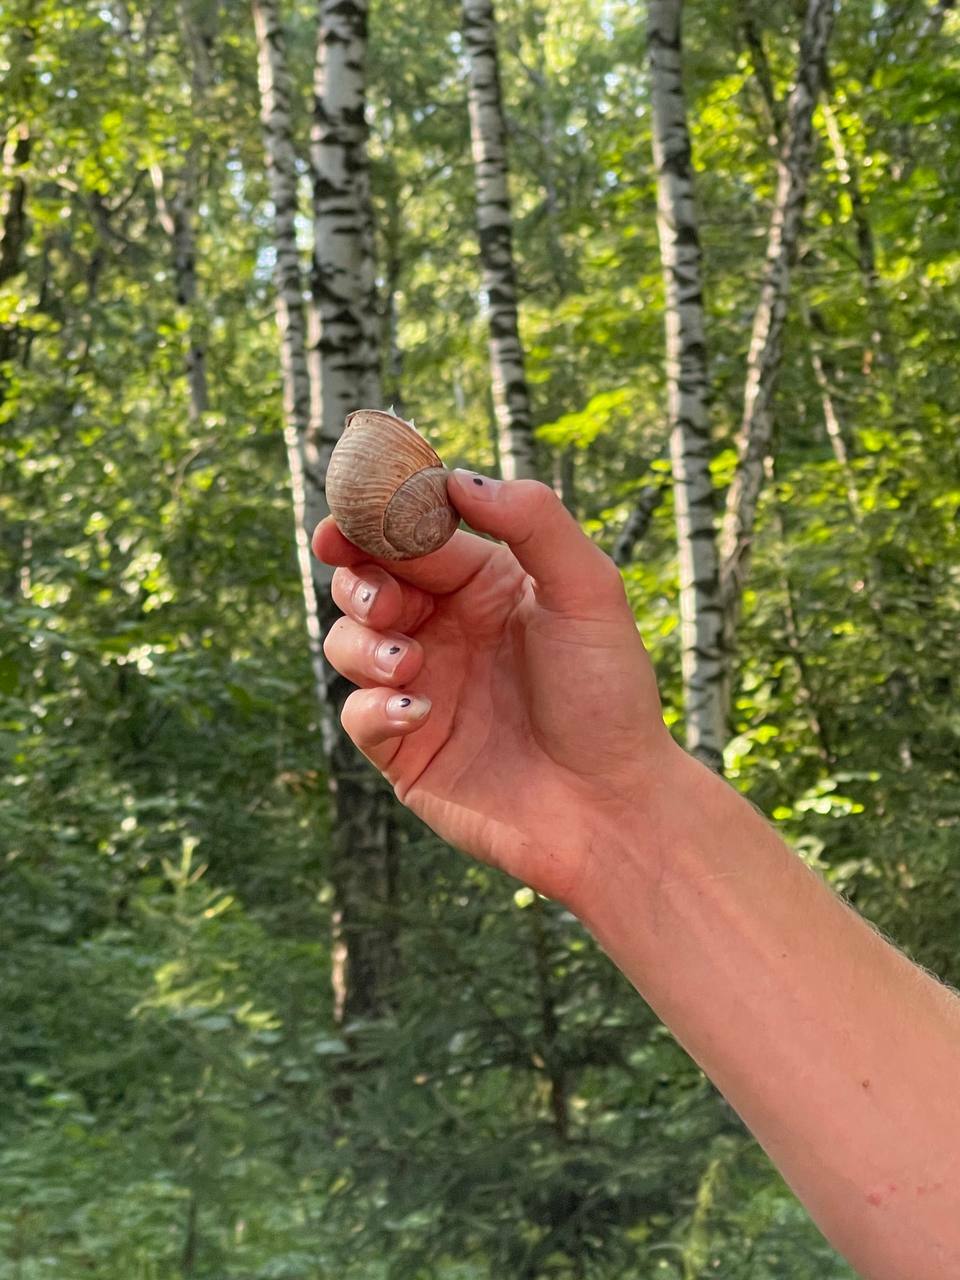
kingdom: Animalia
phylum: Mollusca
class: Gastropoda
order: Stylommatophora
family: Helicidae
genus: Helix
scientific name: Helix pomatia
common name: Roman snail
